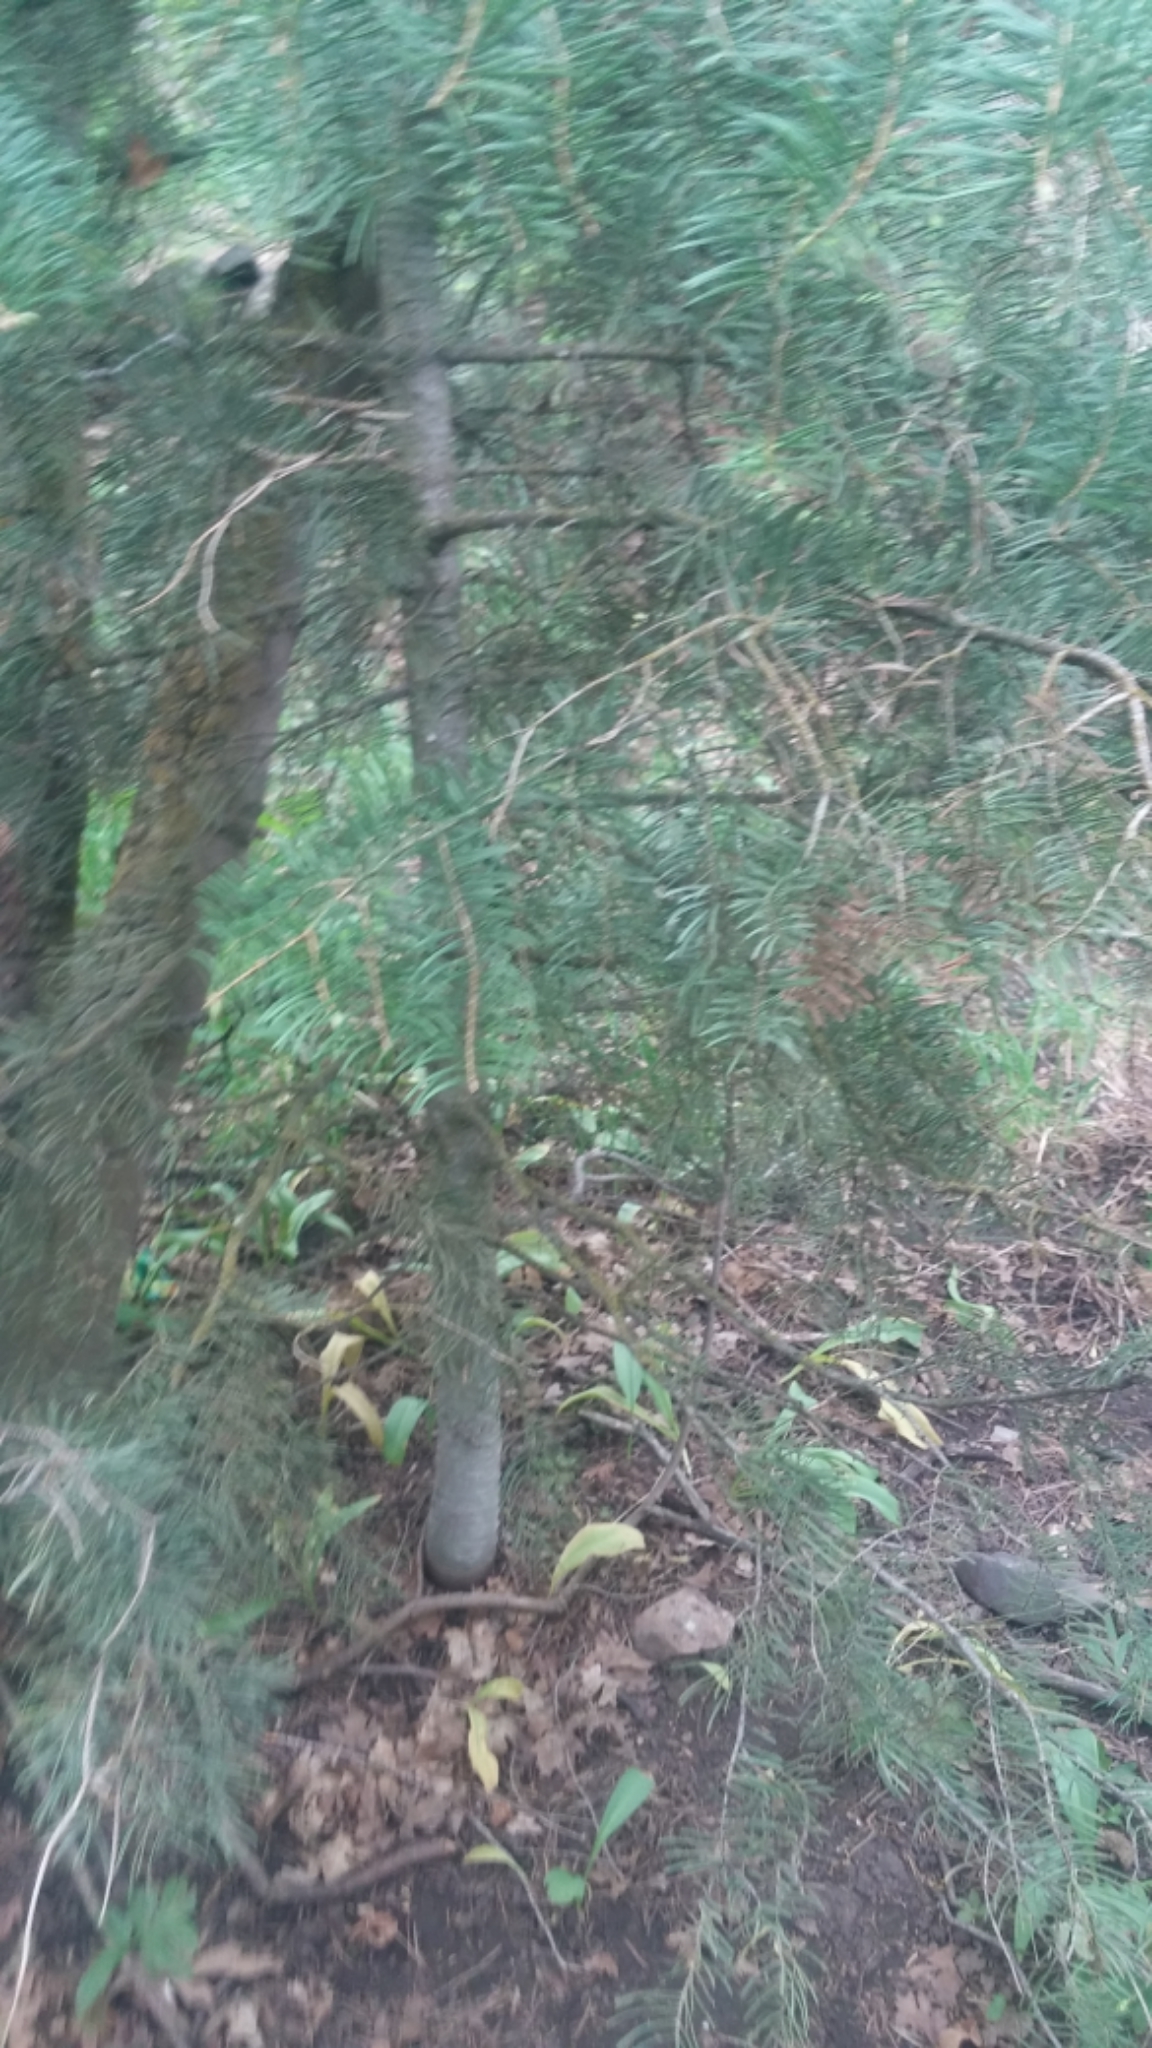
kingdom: Plantae
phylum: Tracheophyta
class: Pinopsida
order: Pinales
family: Pinaceae
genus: Abies
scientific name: Abies concolor
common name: Colorado fir
